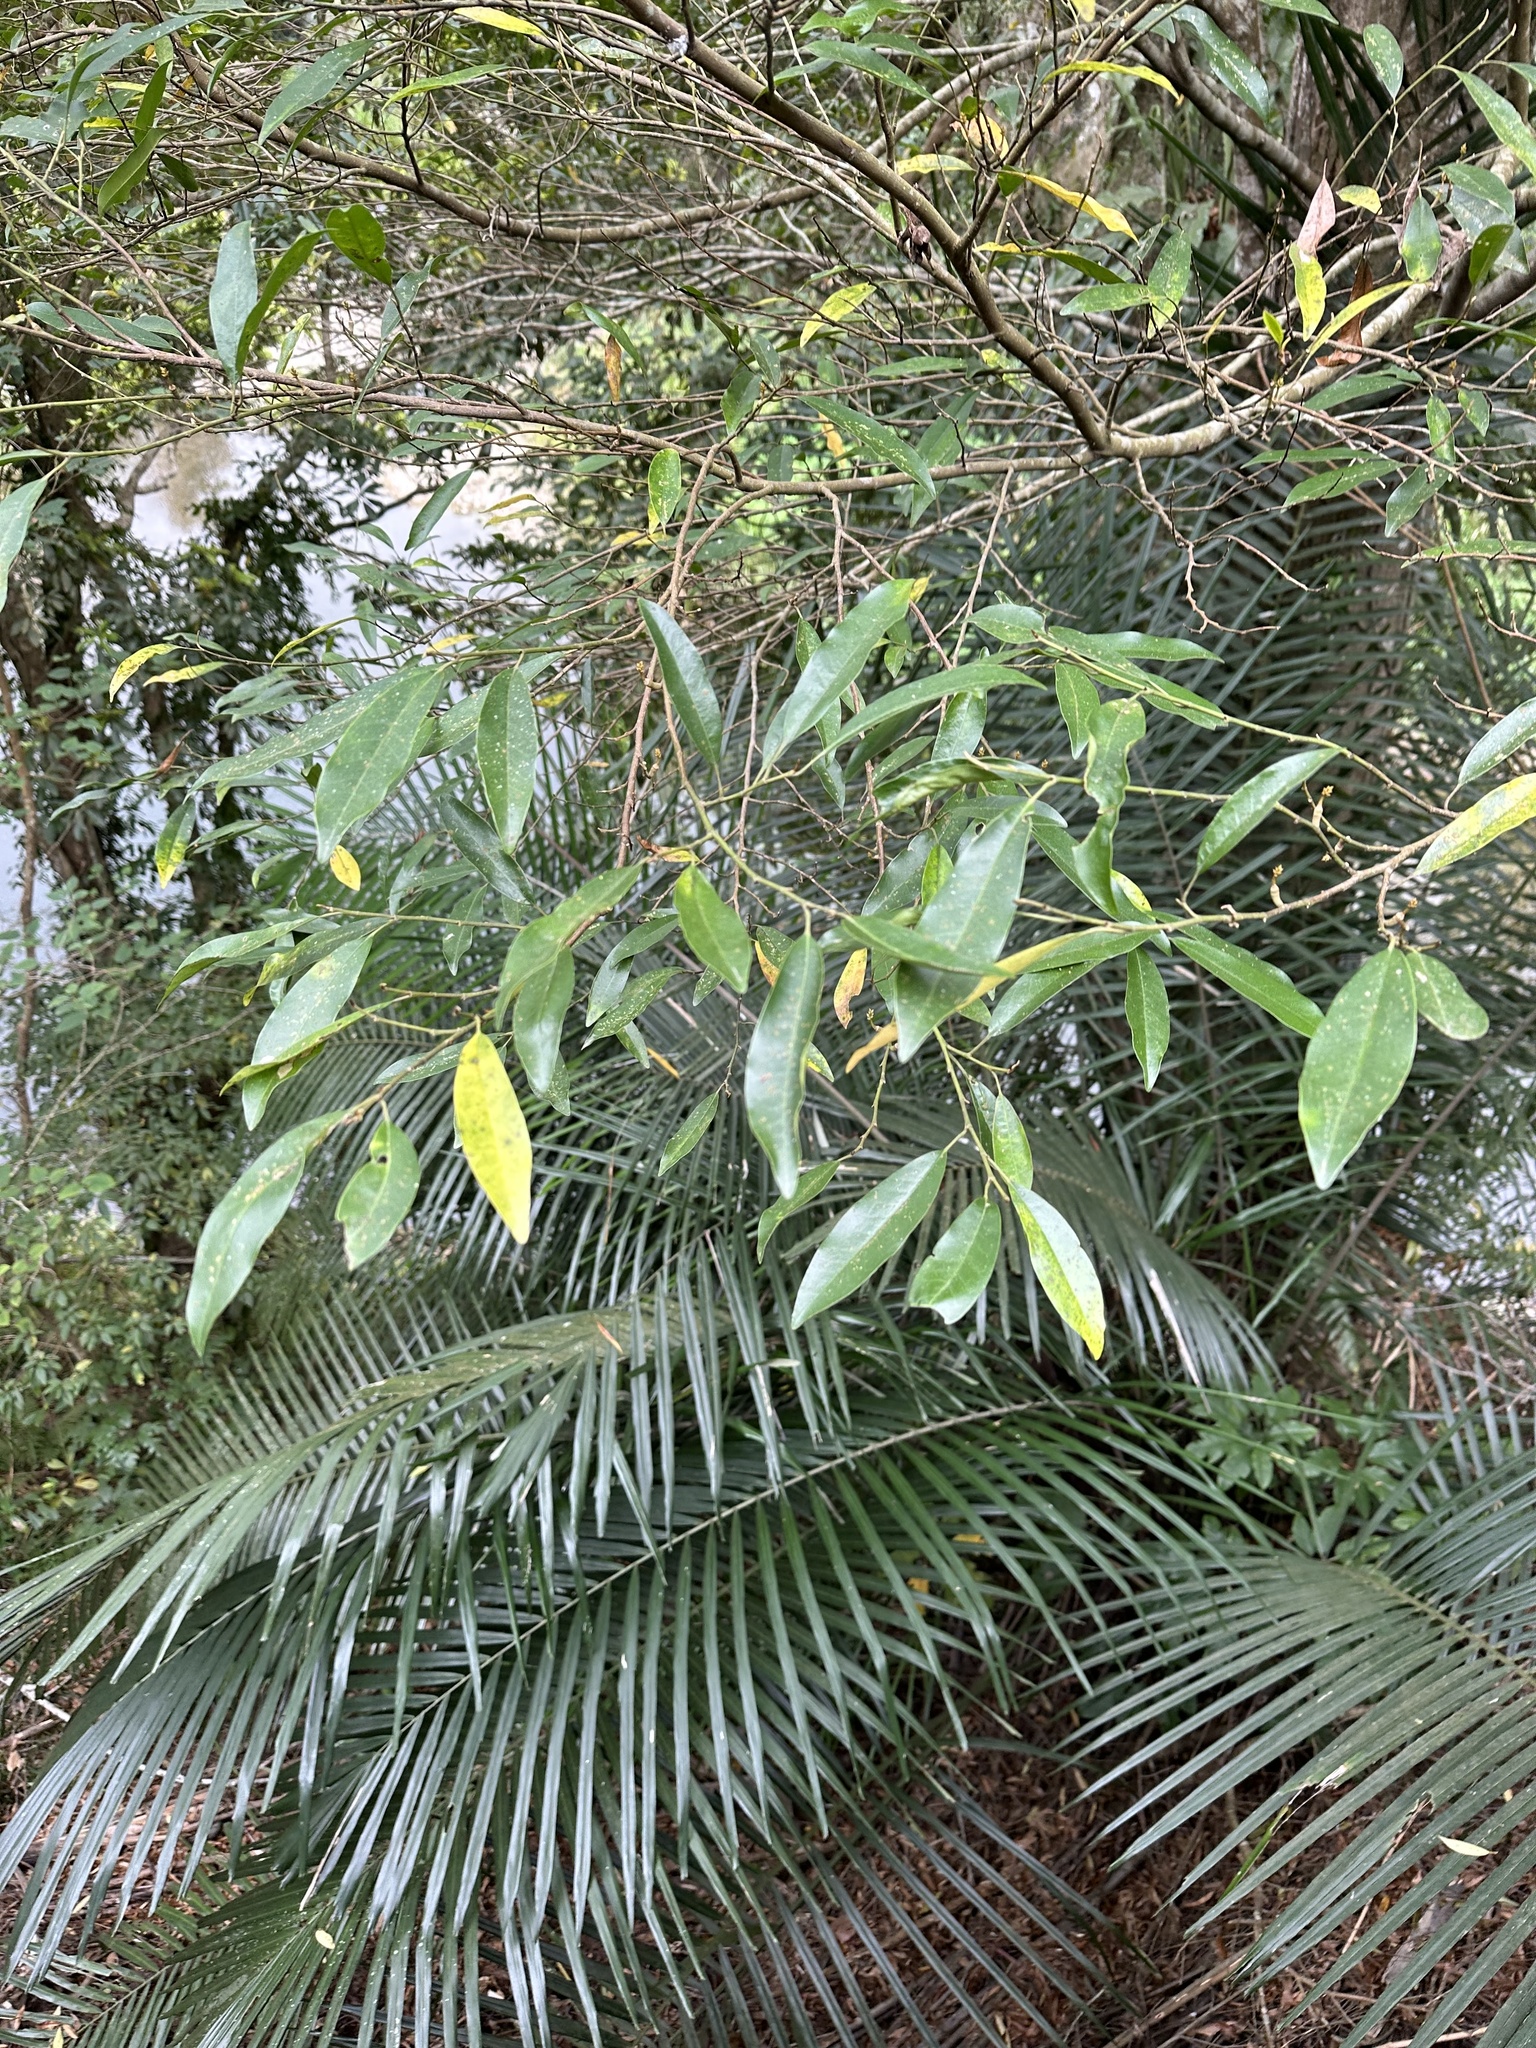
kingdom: Plantae
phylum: Tracheophyta
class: Magnoliopsida
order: Magnoliales
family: Magnoliaceae
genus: Magnolia
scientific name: Magnolia compressa
